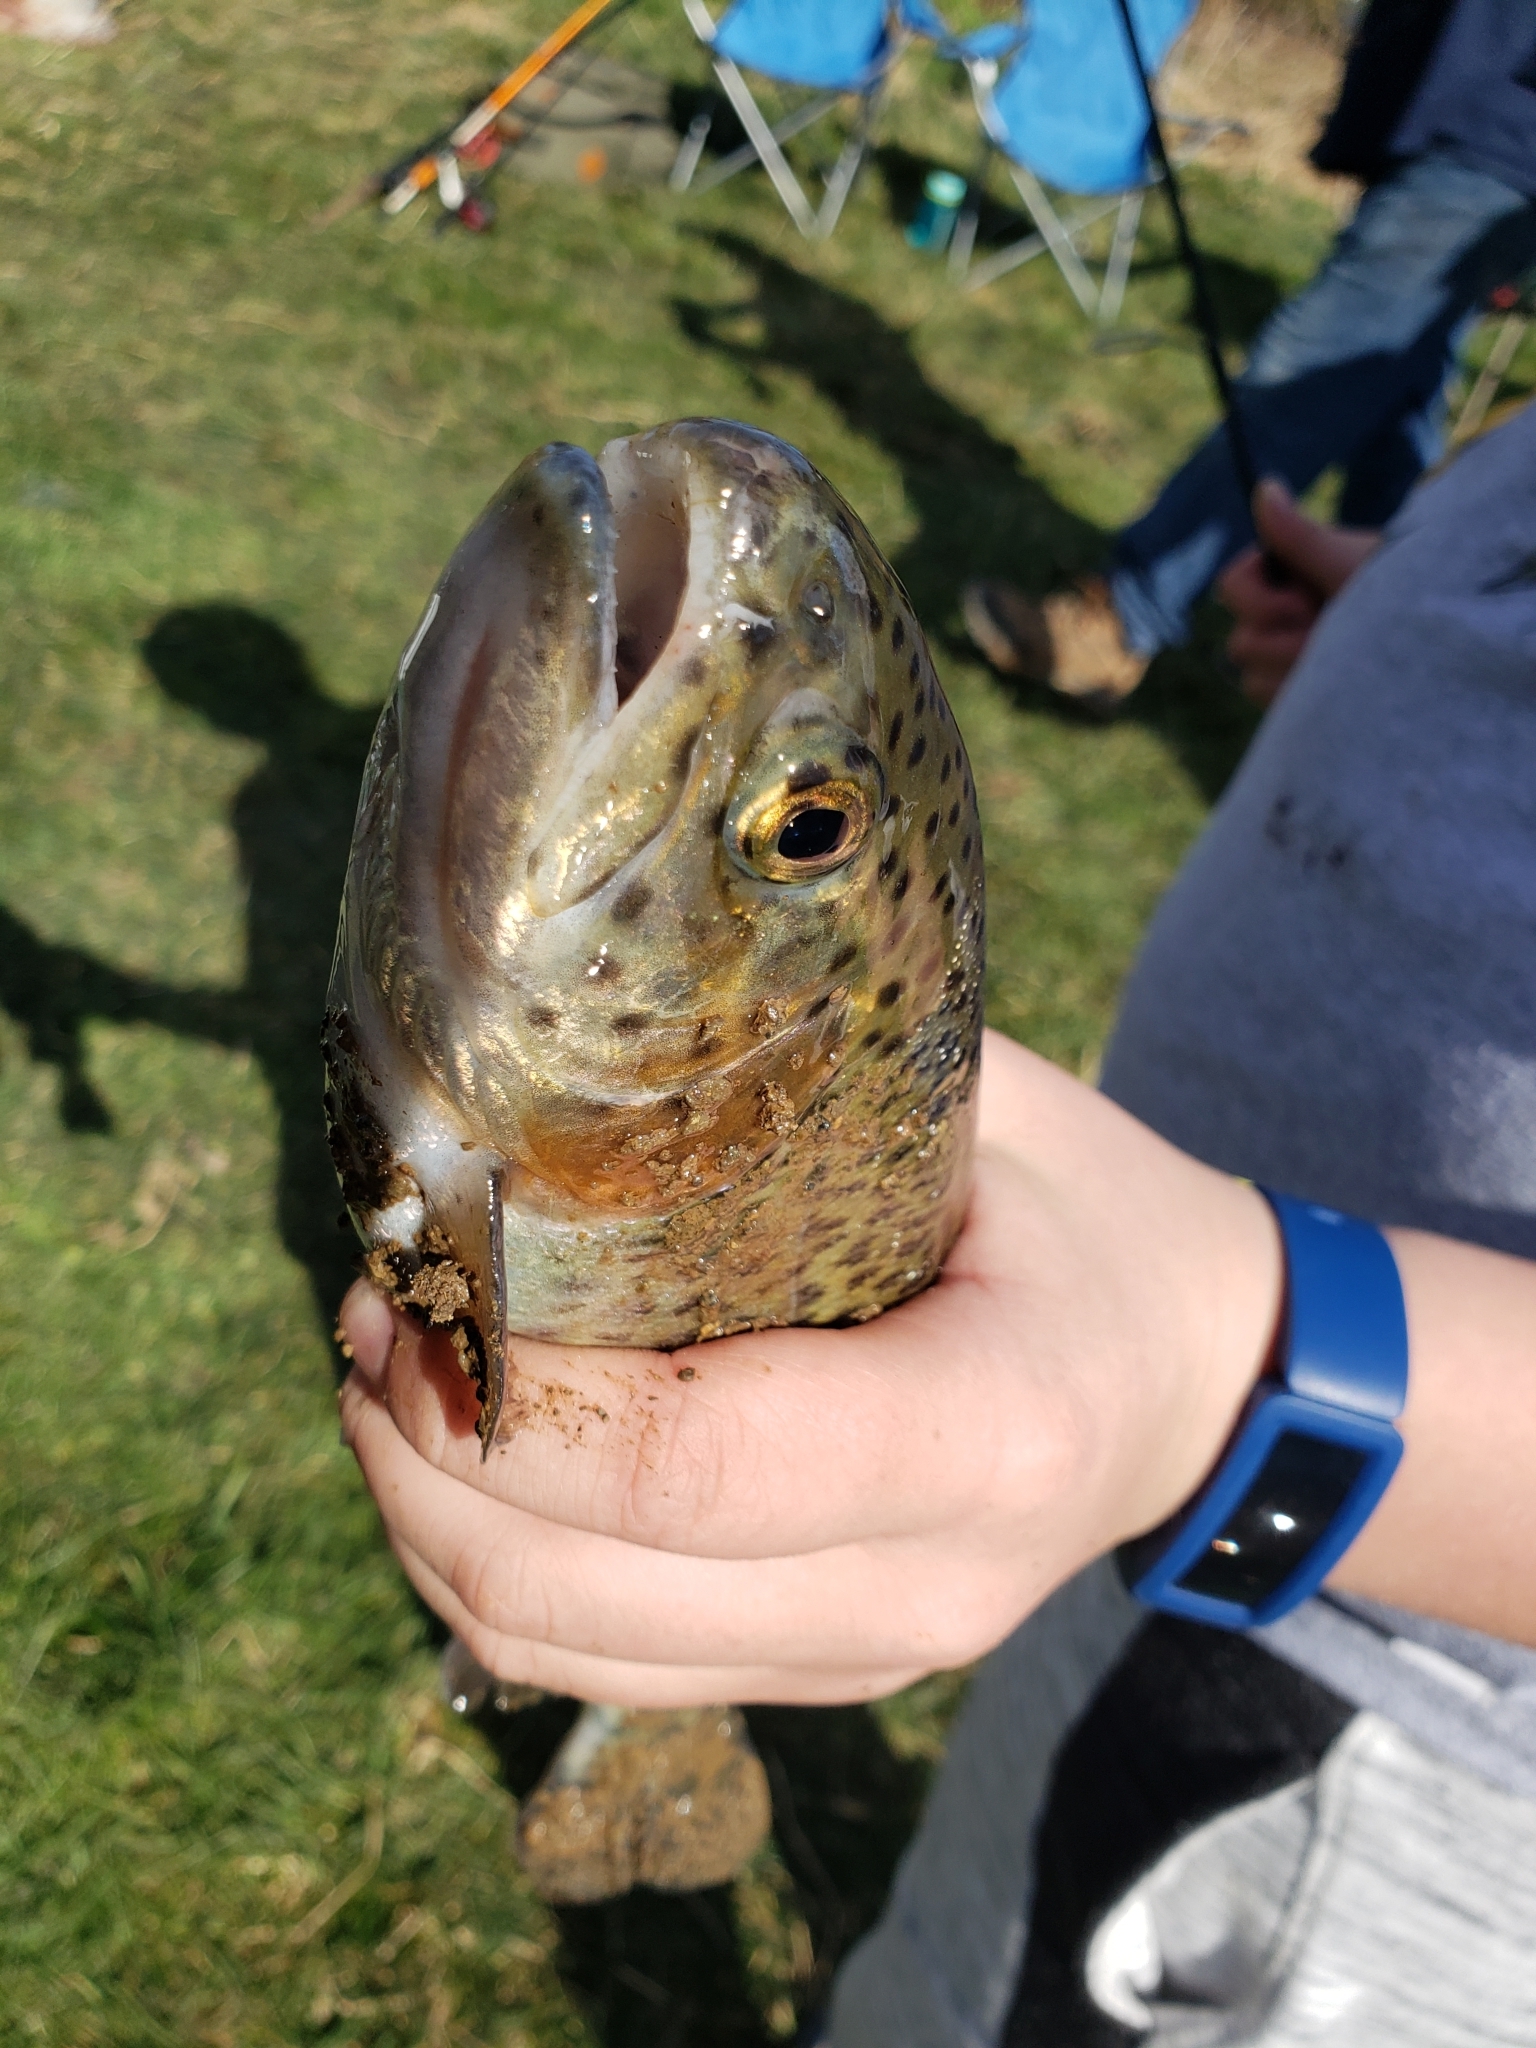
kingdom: Animalia
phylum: Chordata
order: Salmoniformes
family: Salmonidae
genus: Oncorhynchus
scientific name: Oncorhynchus mykiss
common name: Rainbow trout
